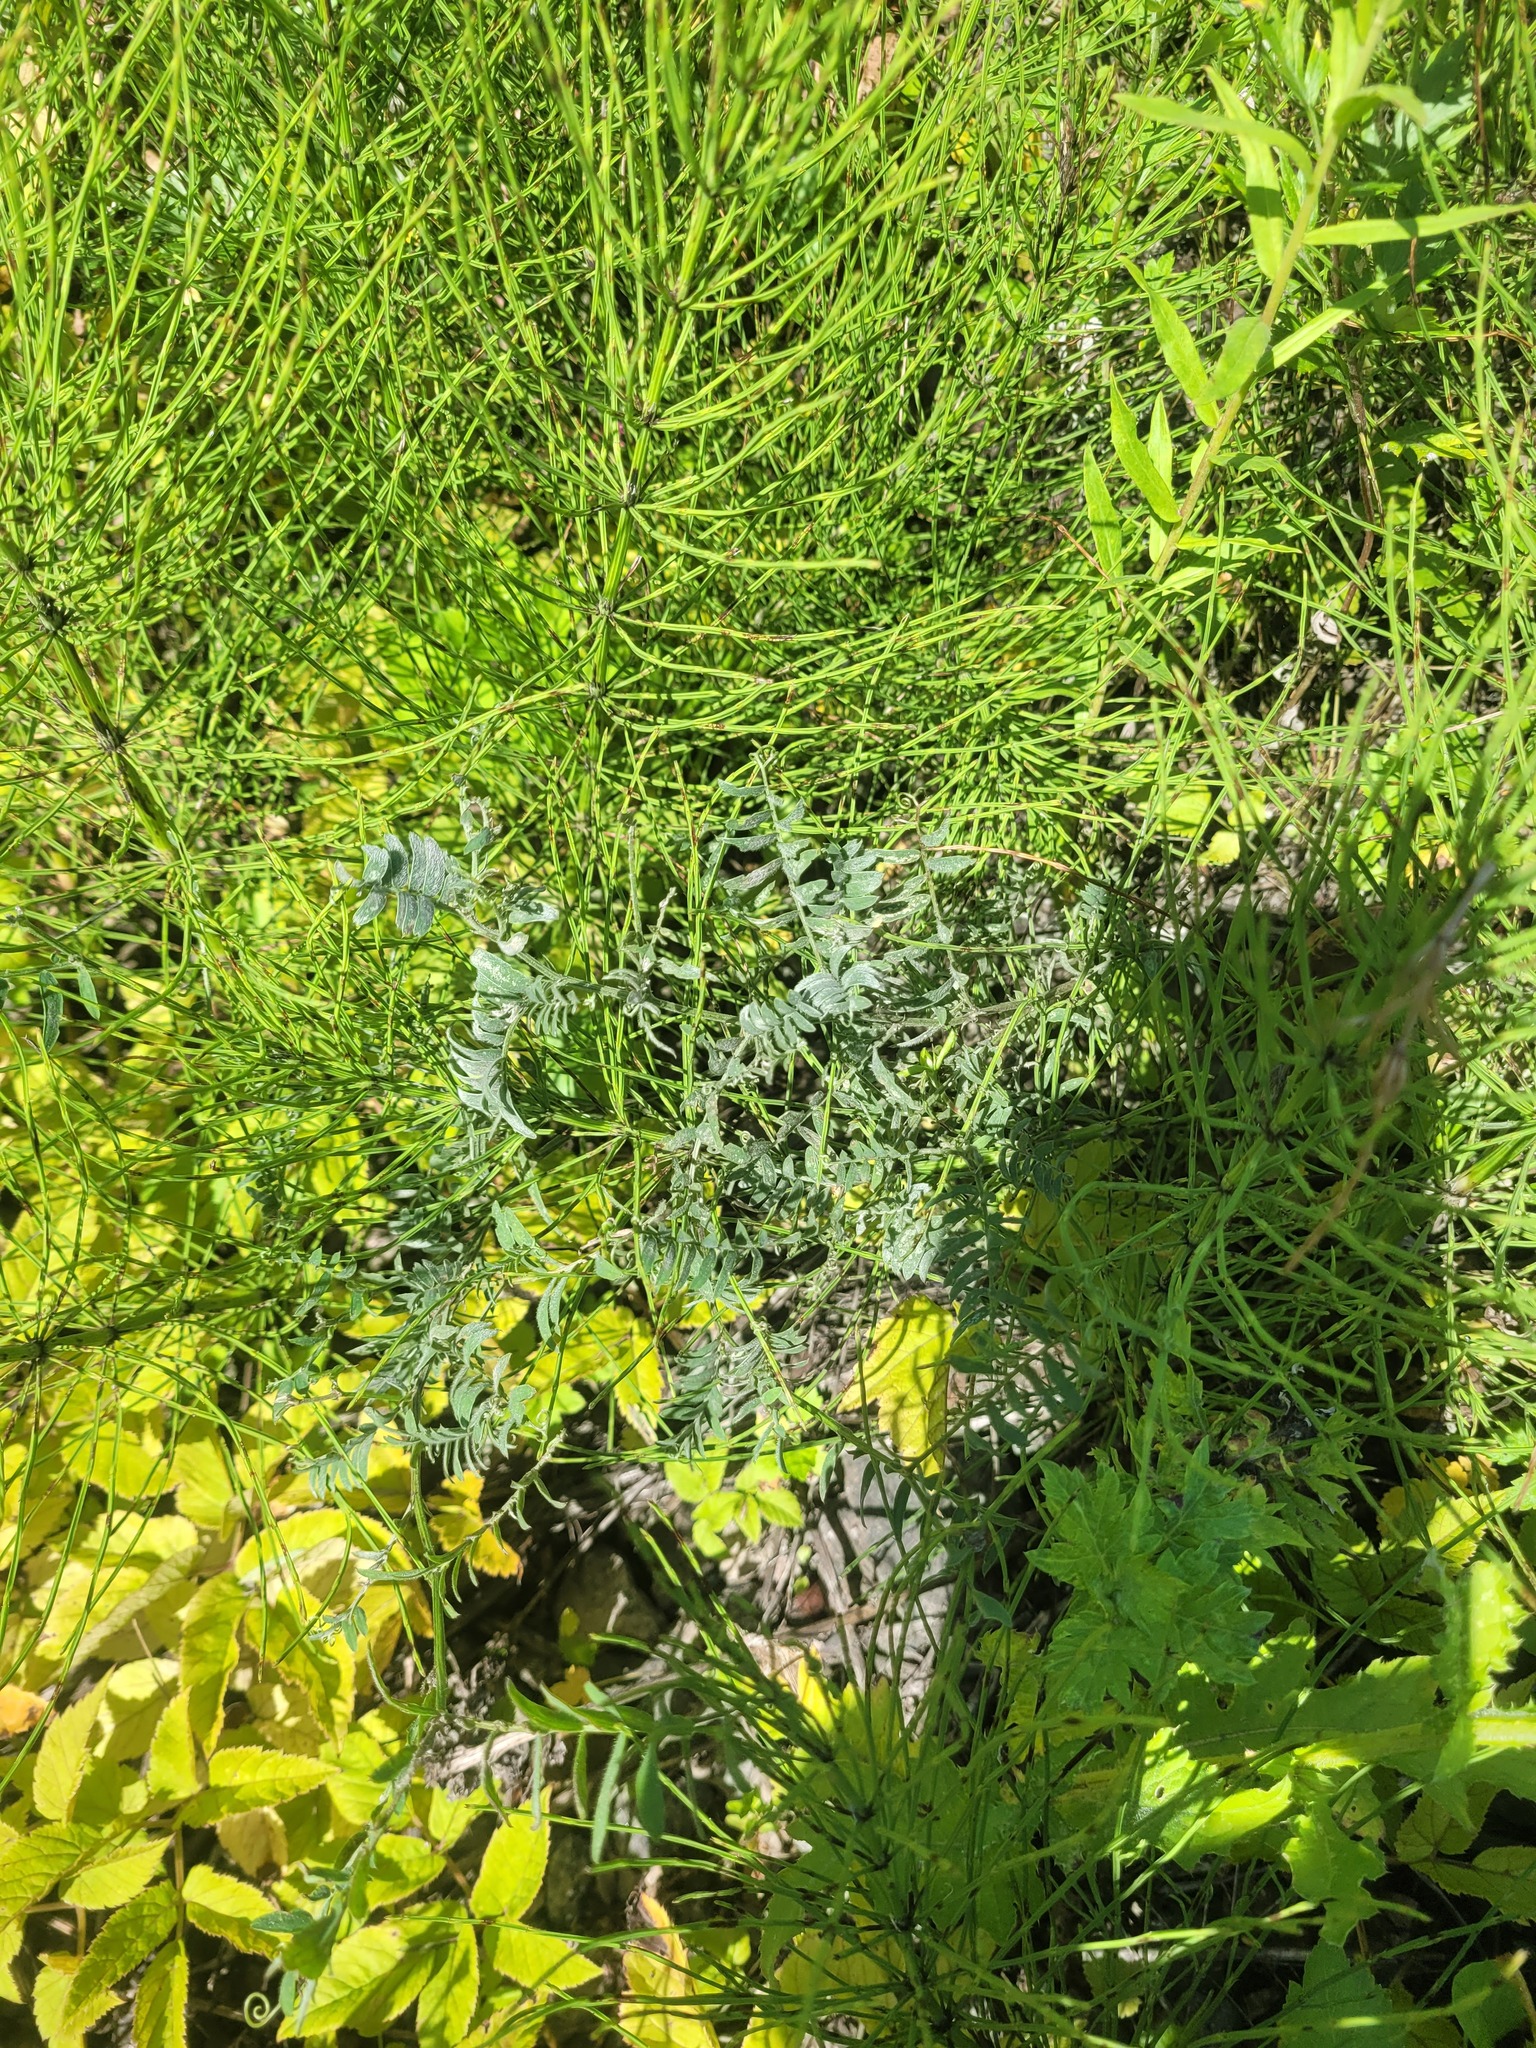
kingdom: Plantae
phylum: Tracheophyta
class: Magnoliopsida
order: Fabales
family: Fabaceae
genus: Vicia
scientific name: Vicia cracca
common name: Bird vetch
